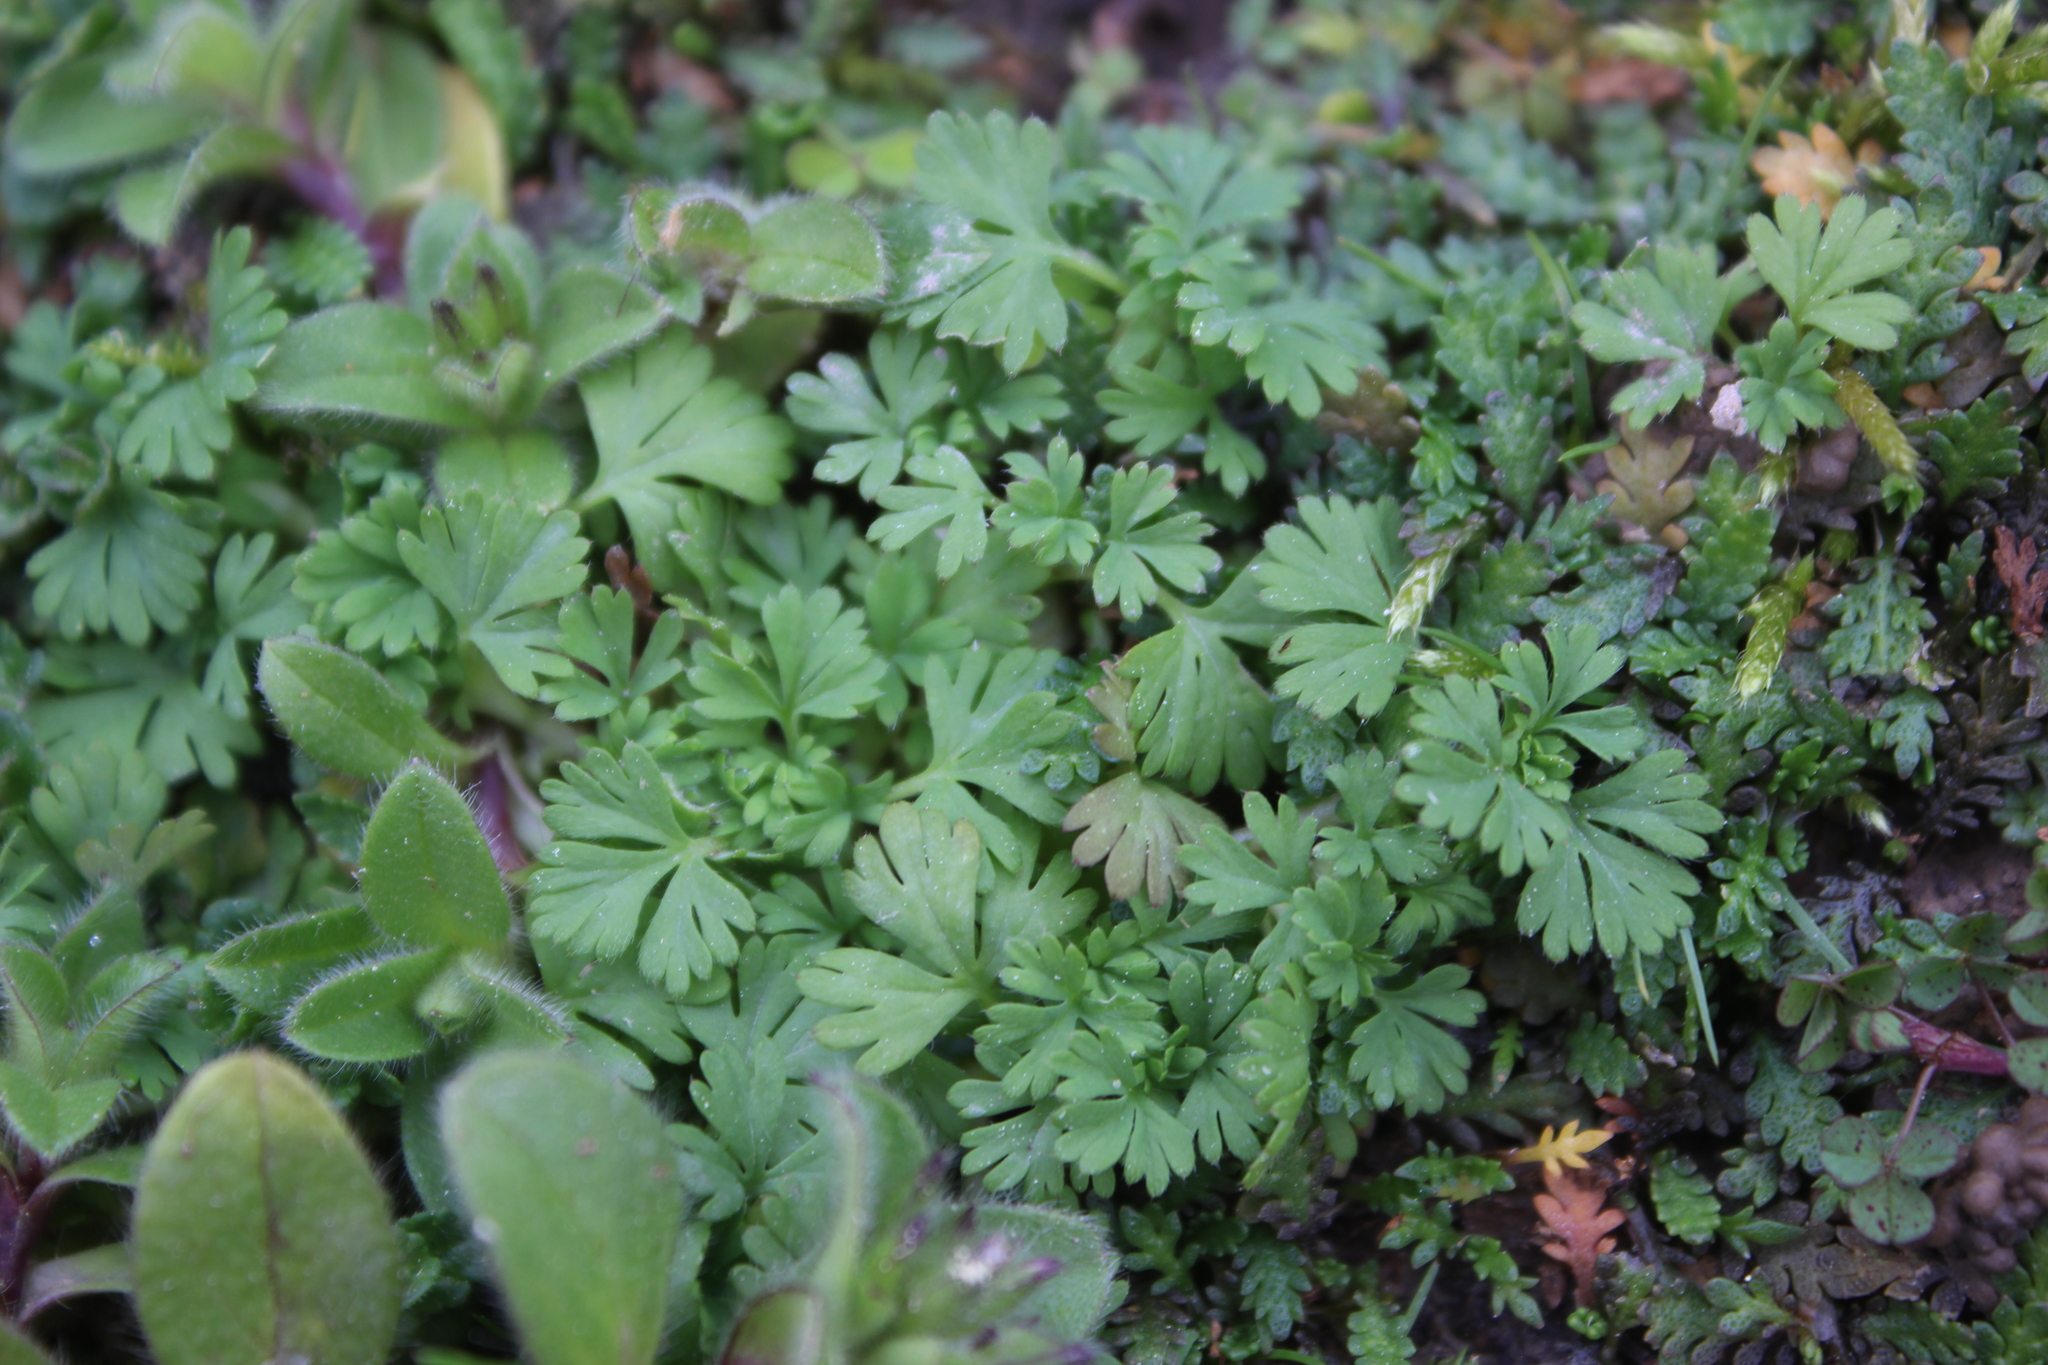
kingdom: Plantae
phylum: Tracheophyta
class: Magnoliopsida
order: Rosales
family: Rosaceae
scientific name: Rosaceae
